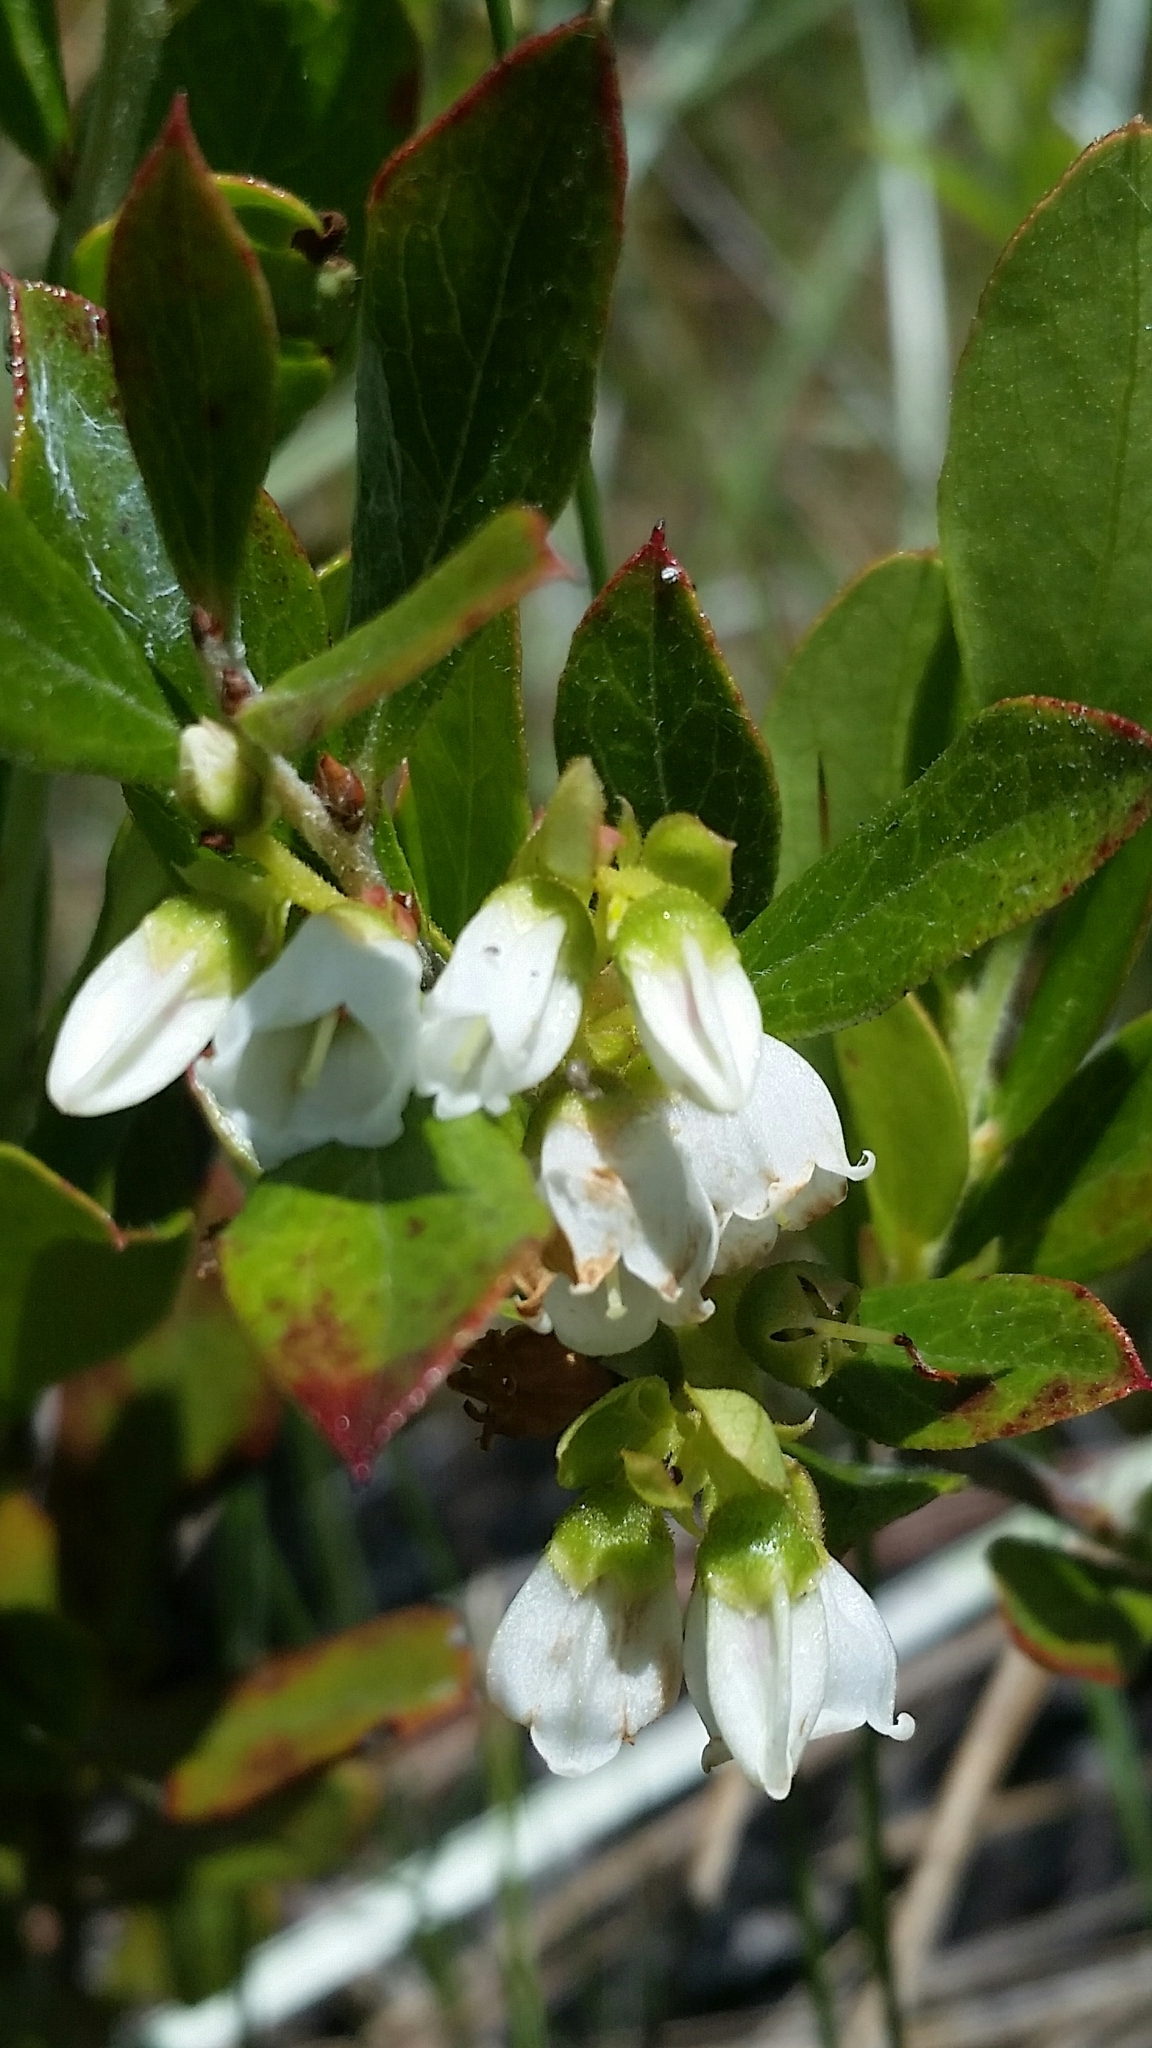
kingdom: Plantae
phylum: Tracheophyta
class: Magnoliopsida
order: Ericales
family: Ericaceae
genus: Gaylussacia
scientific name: Gaylussacia dumosa
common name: Dwarf huckleberry
